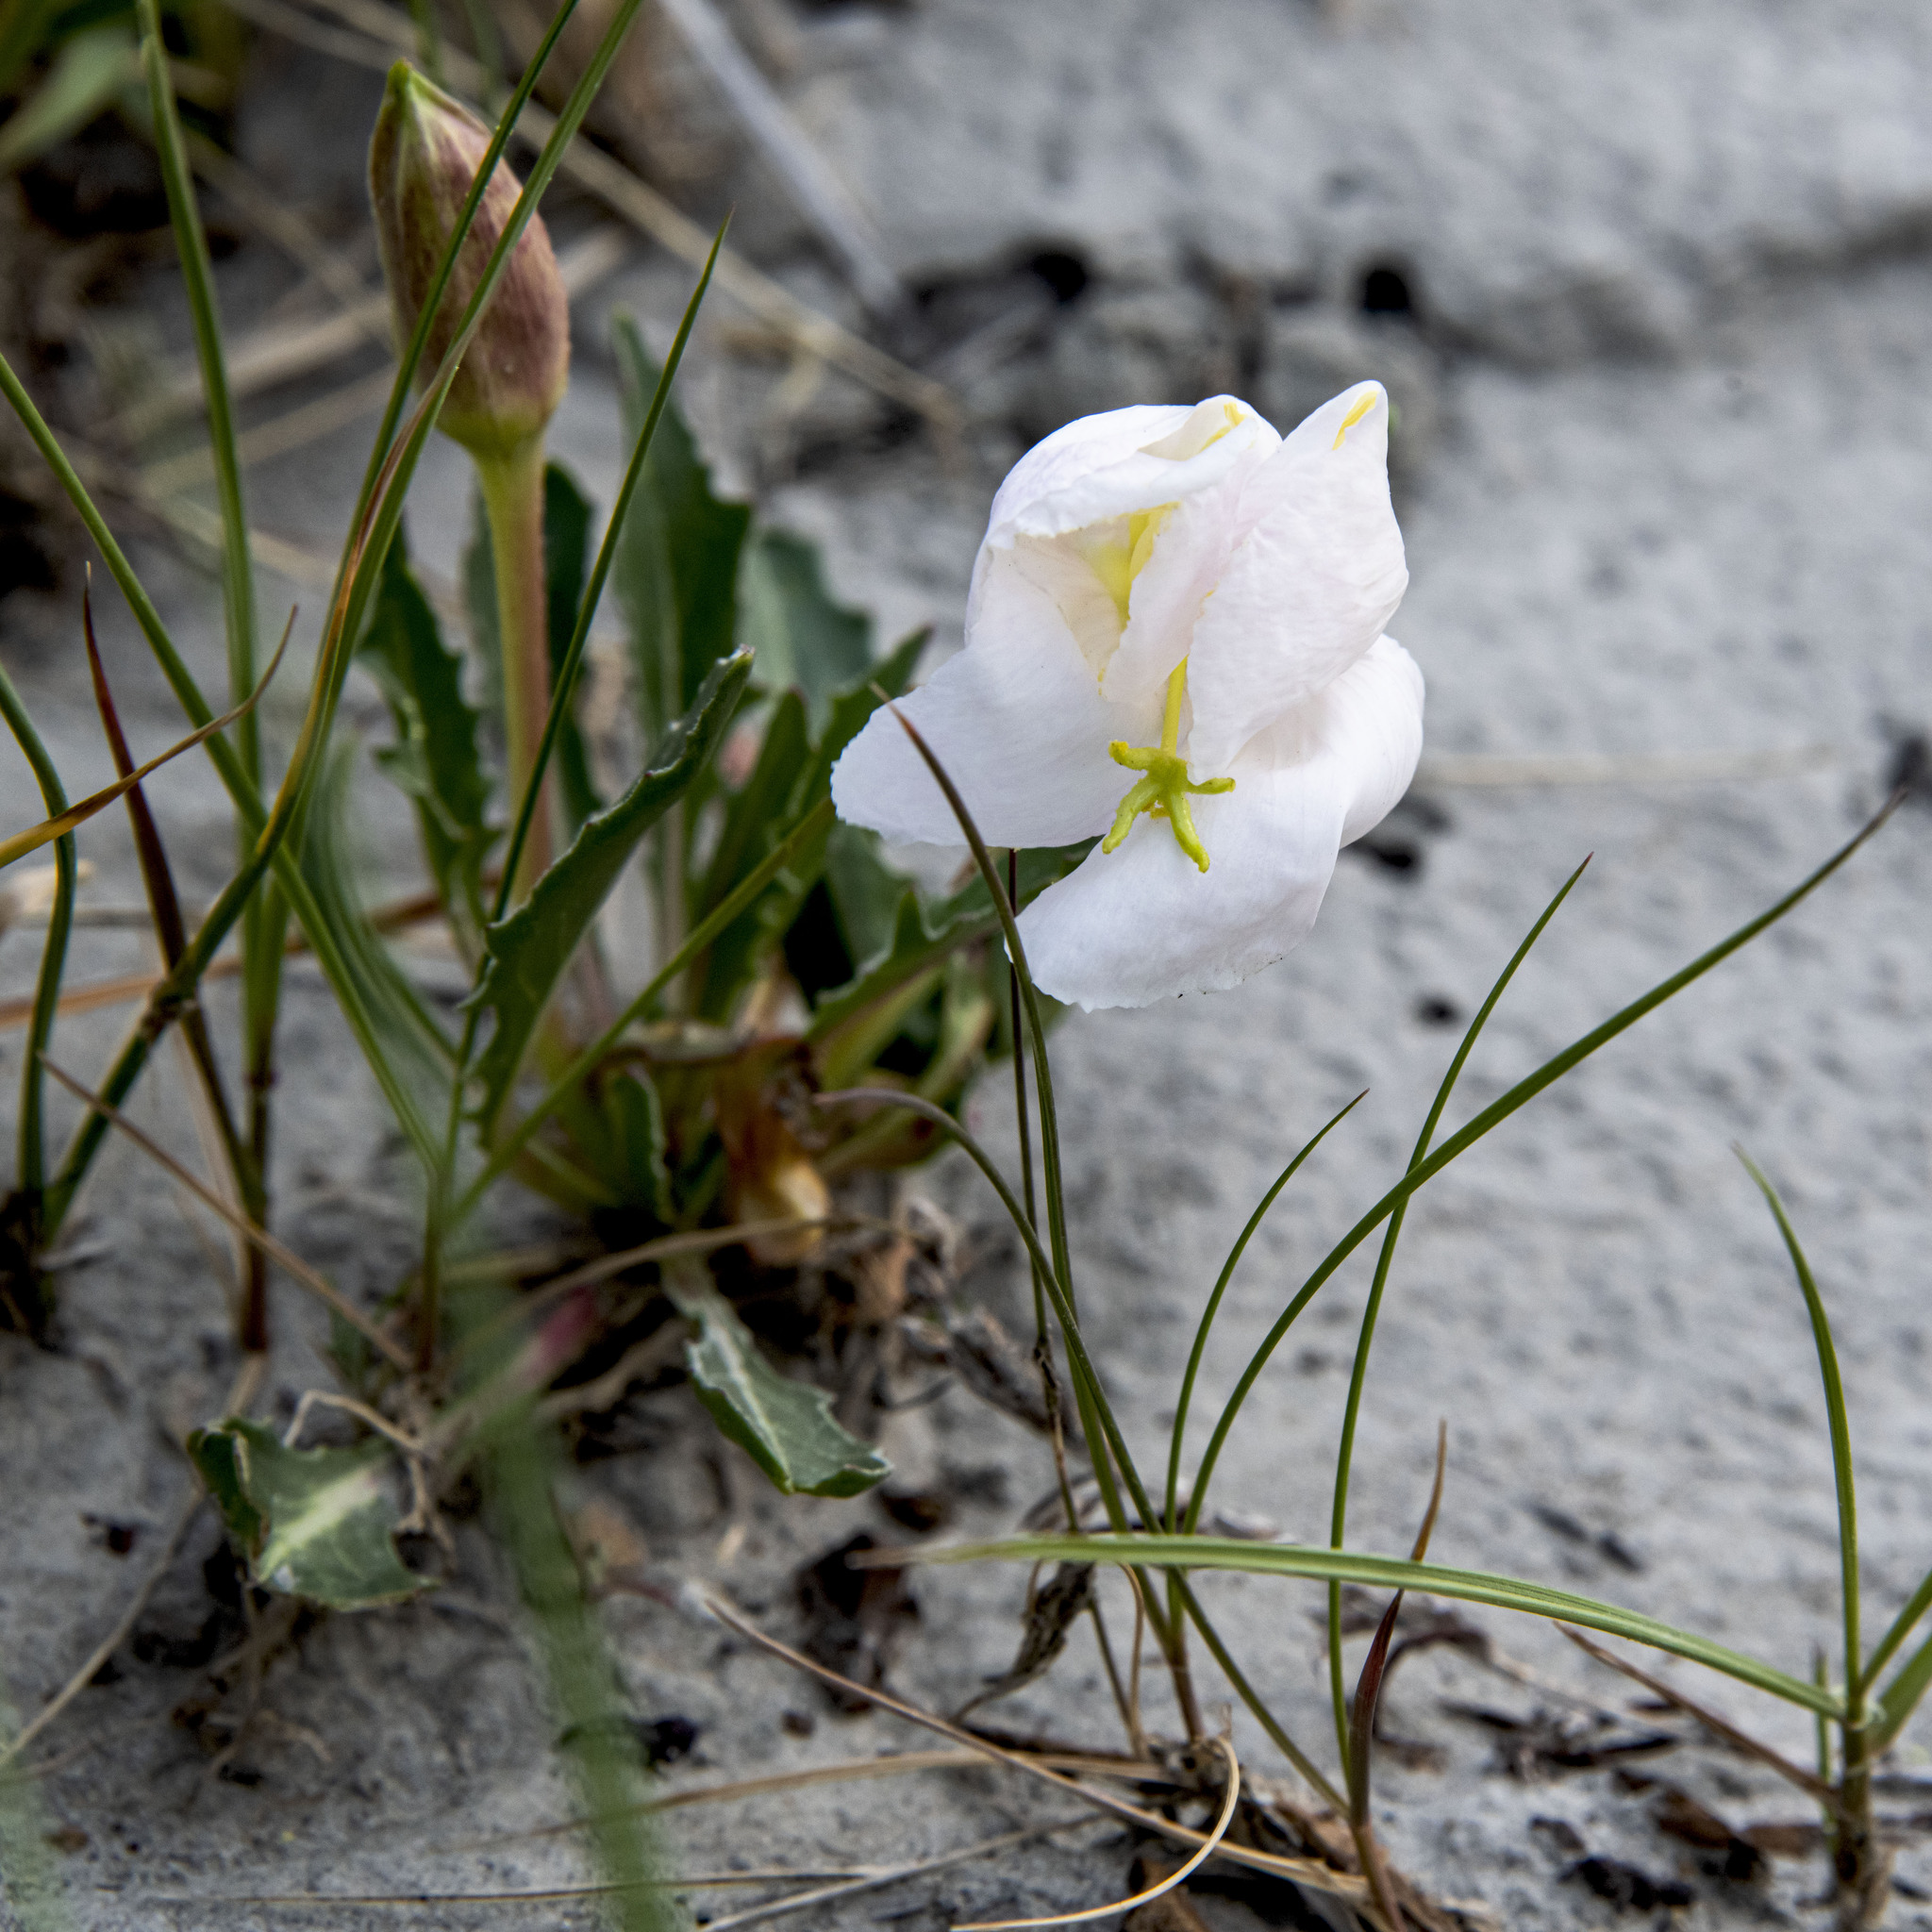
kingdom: Plantae
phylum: Tracheophyta
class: Magnoliopsida
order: Myrtales
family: Onagraceae
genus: Oenothera
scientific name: Oenothera cespitosa
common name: Tufted evening-primrose
